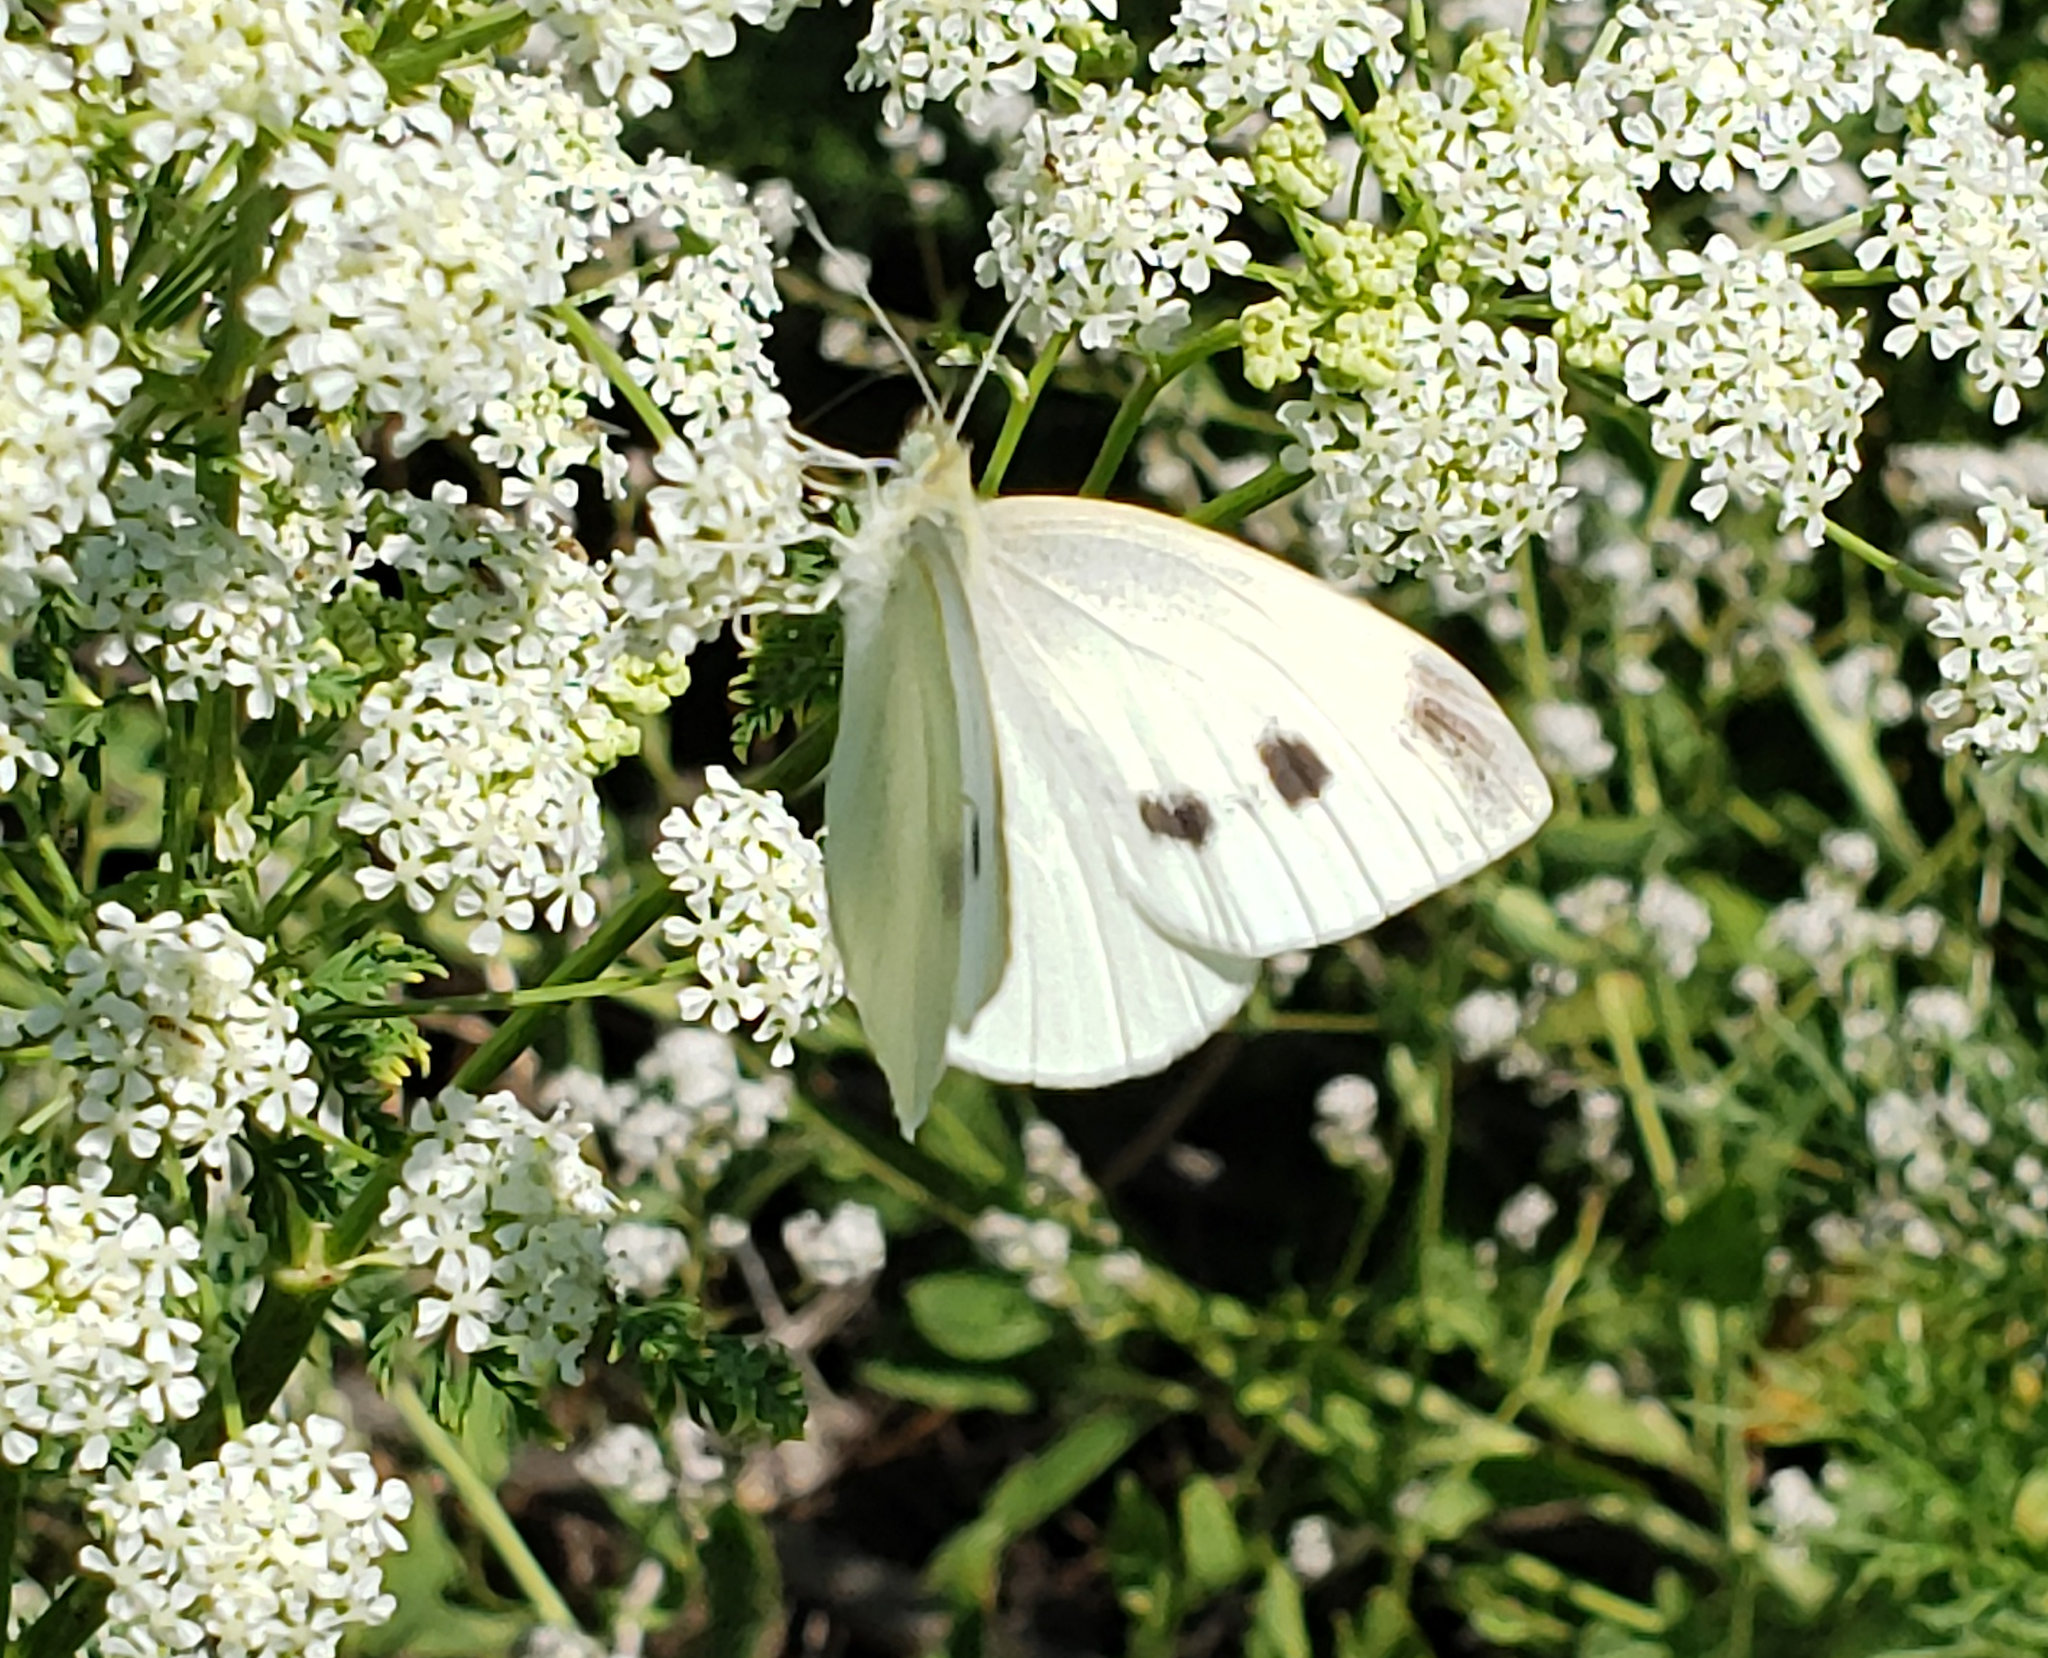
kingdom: Animalia
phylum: Arthropoda
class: Insecta
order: Lepidoptera
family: Pieridae
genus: Pieris
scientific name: Pieris rapae
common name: Small white
